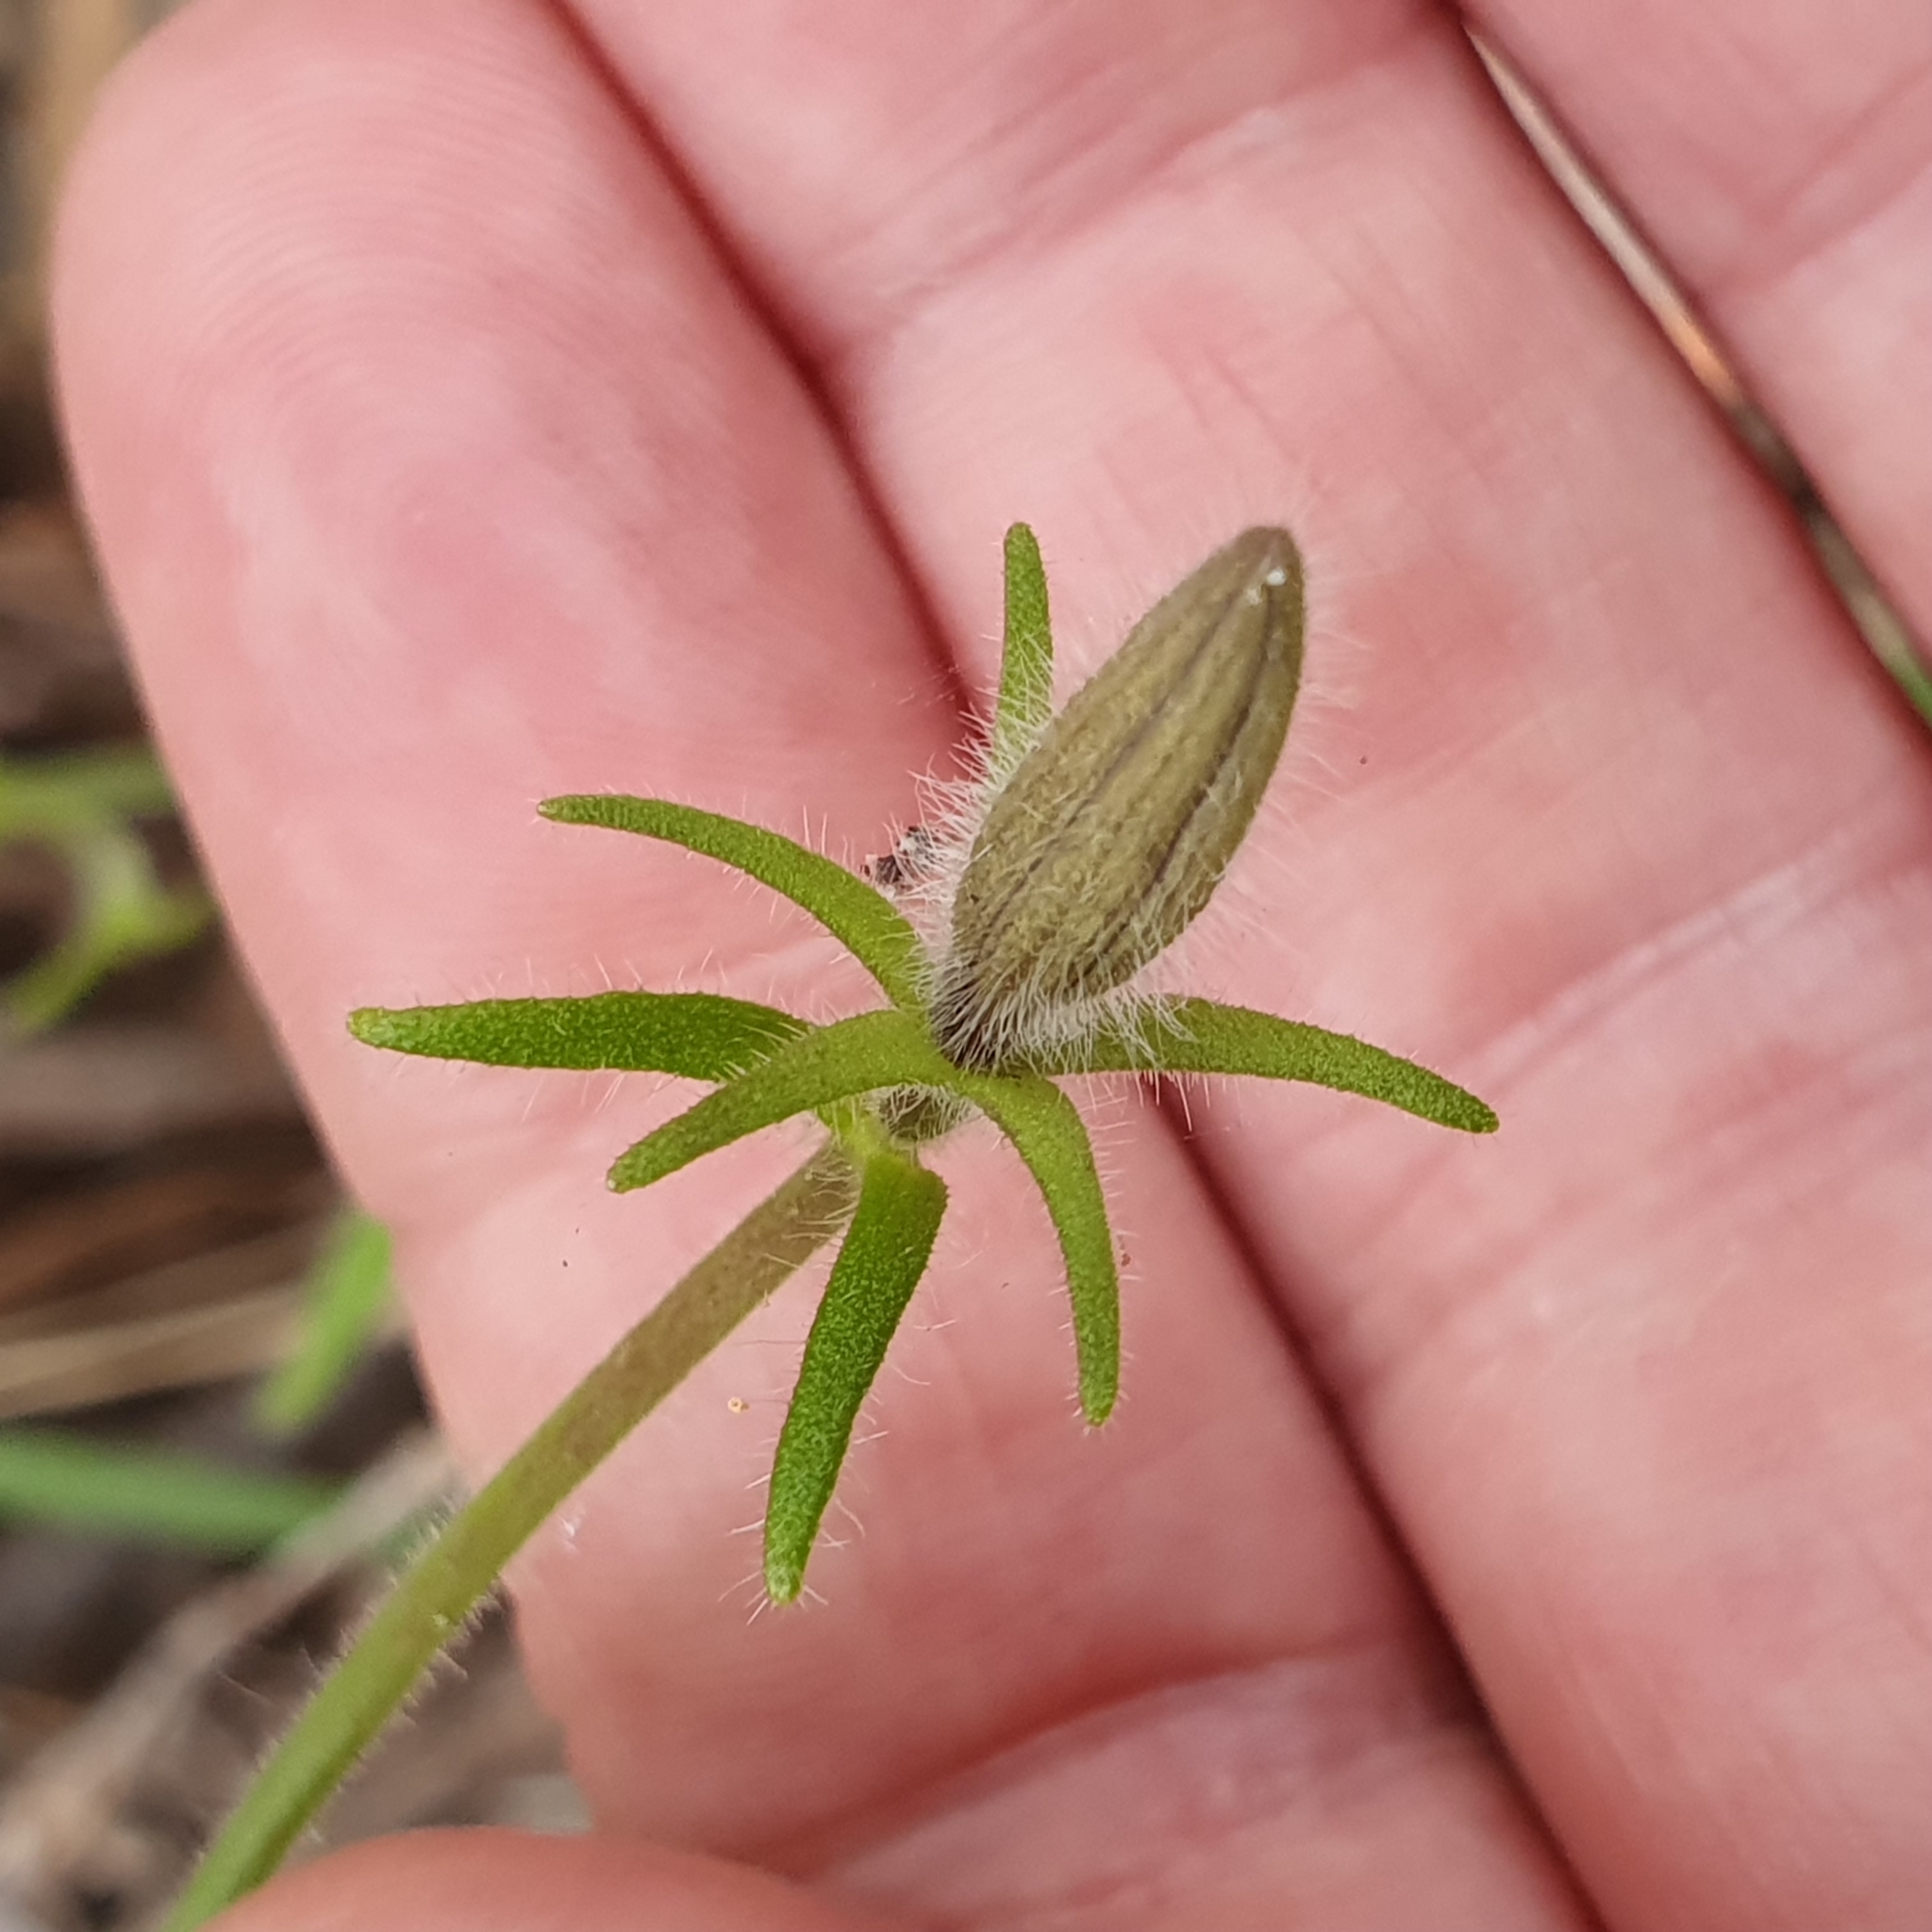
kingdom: Plantae
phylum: Tracheophyta
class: Magnoliopsida
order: Asterales
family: Goodeniaceae
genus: Scaevola
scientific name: Scaevola ramosissima
